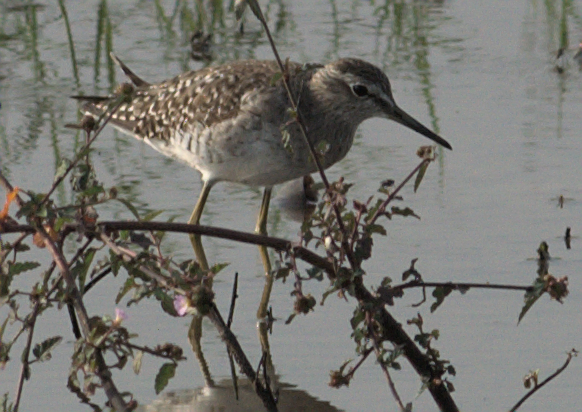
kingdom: Animalia
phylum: Chordata
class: Aves
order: Charadriiformes
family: Scolopacidae
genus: Tringa
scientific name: Tringa glareola
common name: Wood sandpiper
